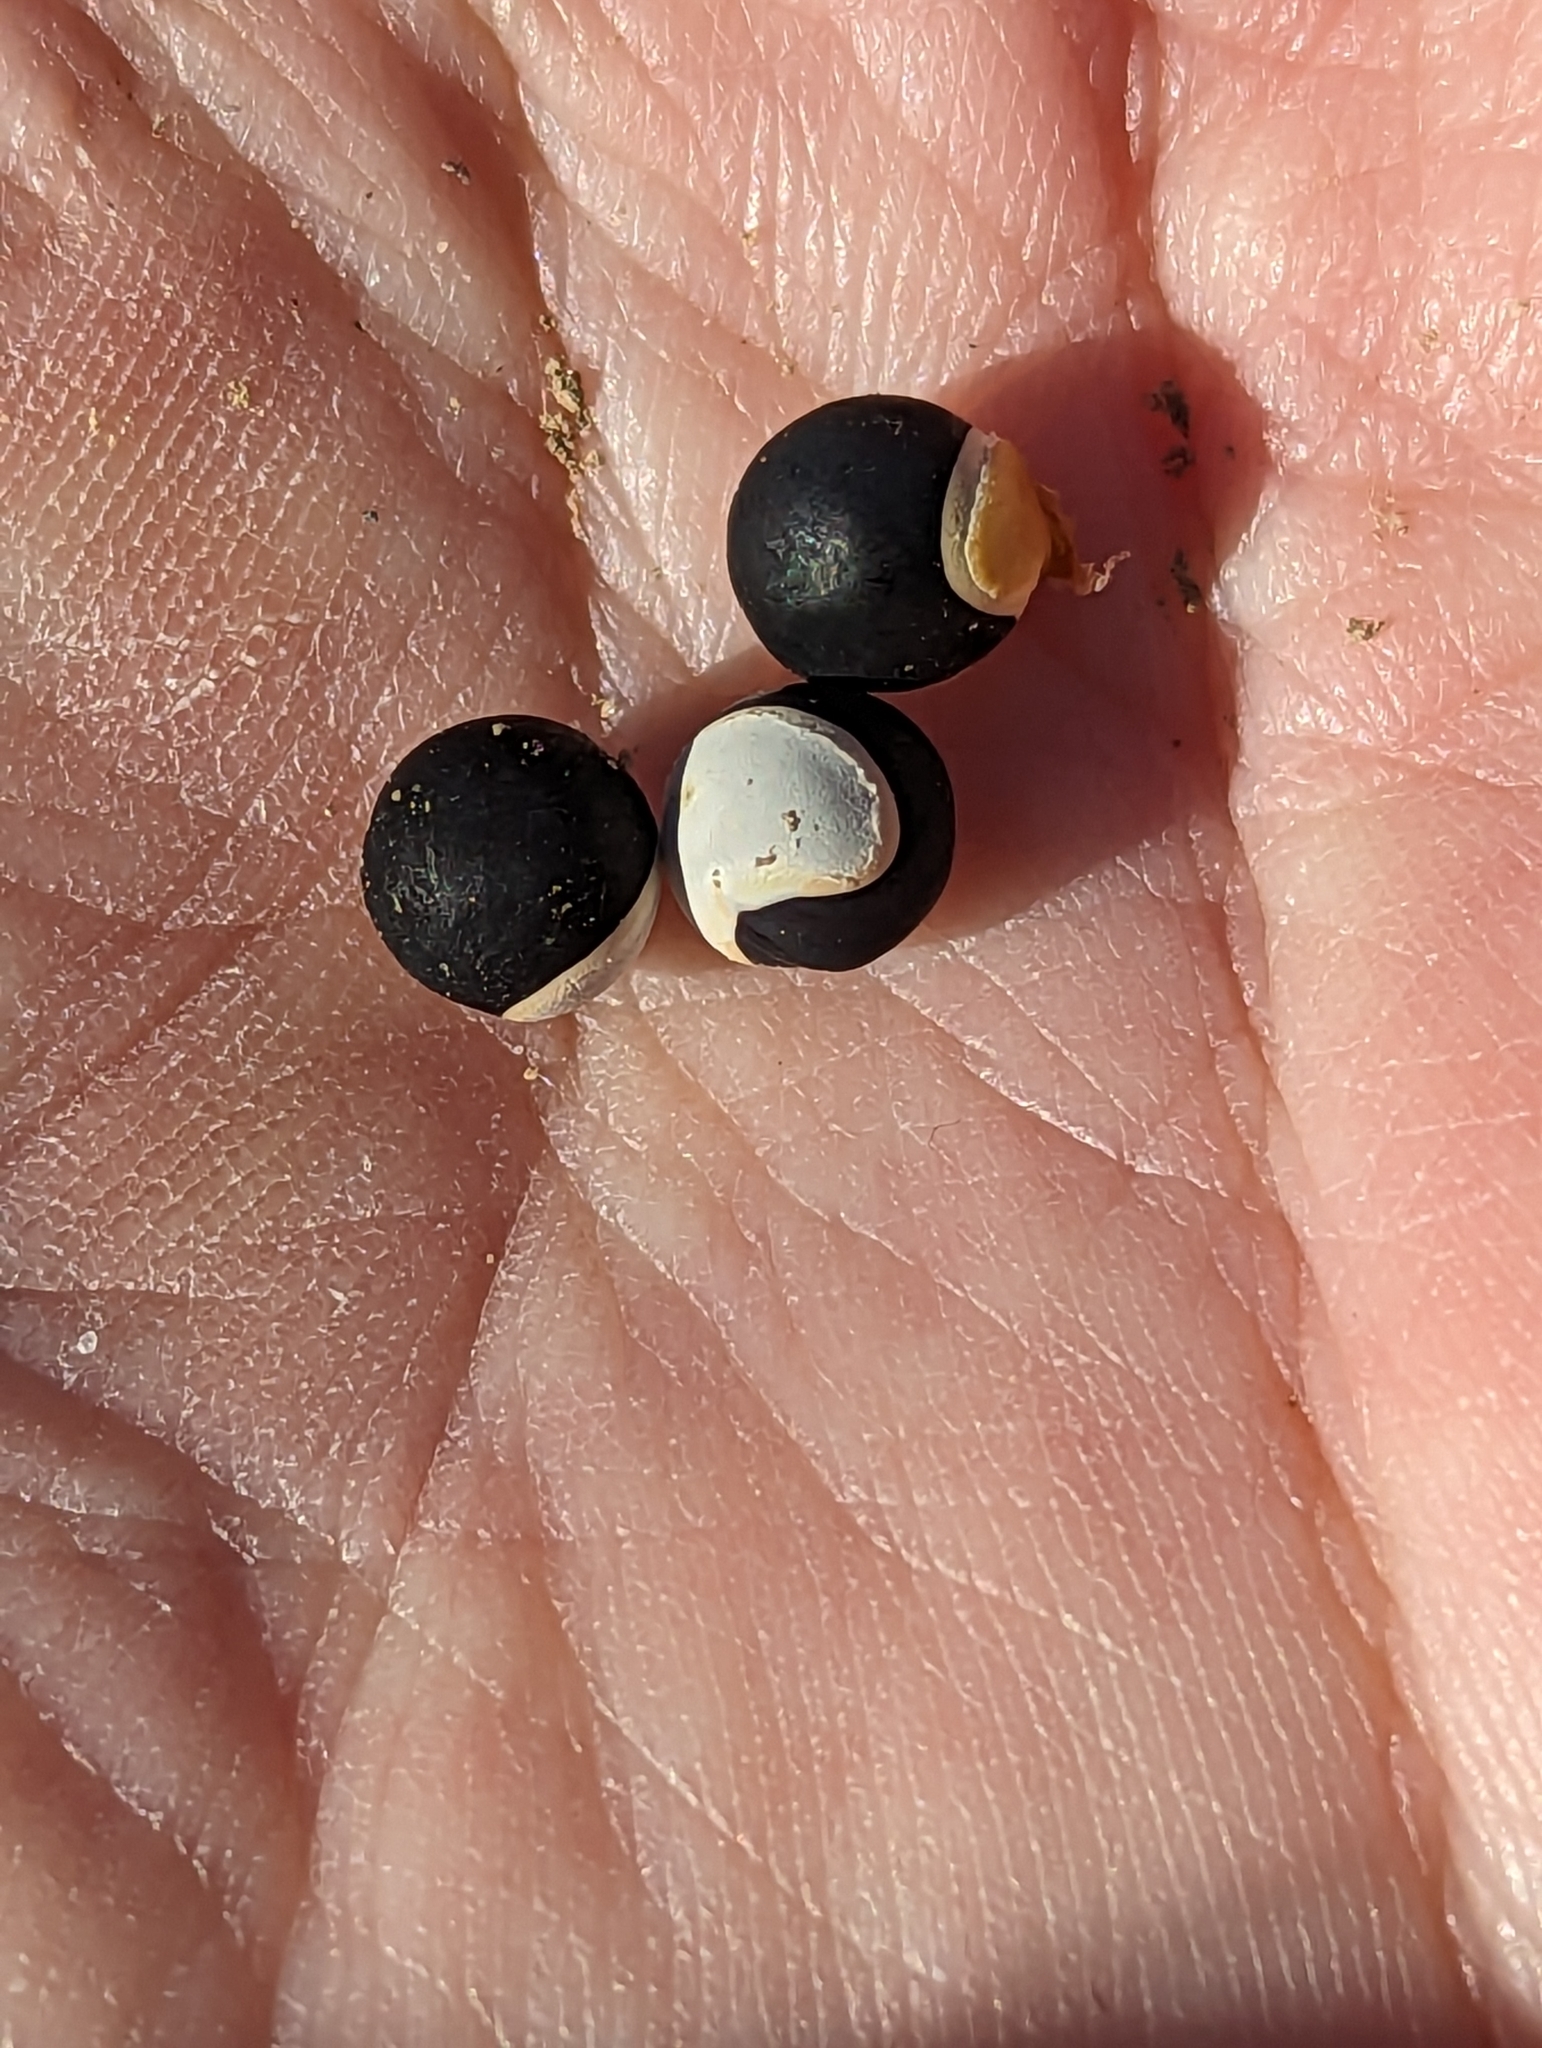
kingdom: Plantae
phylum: Tracheophyta
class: Magnoliopsida
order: Sapindales
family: Sapindaceae
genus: Cardiospermum
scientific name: Cardiospermum halicacabum
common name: Balloon vine
